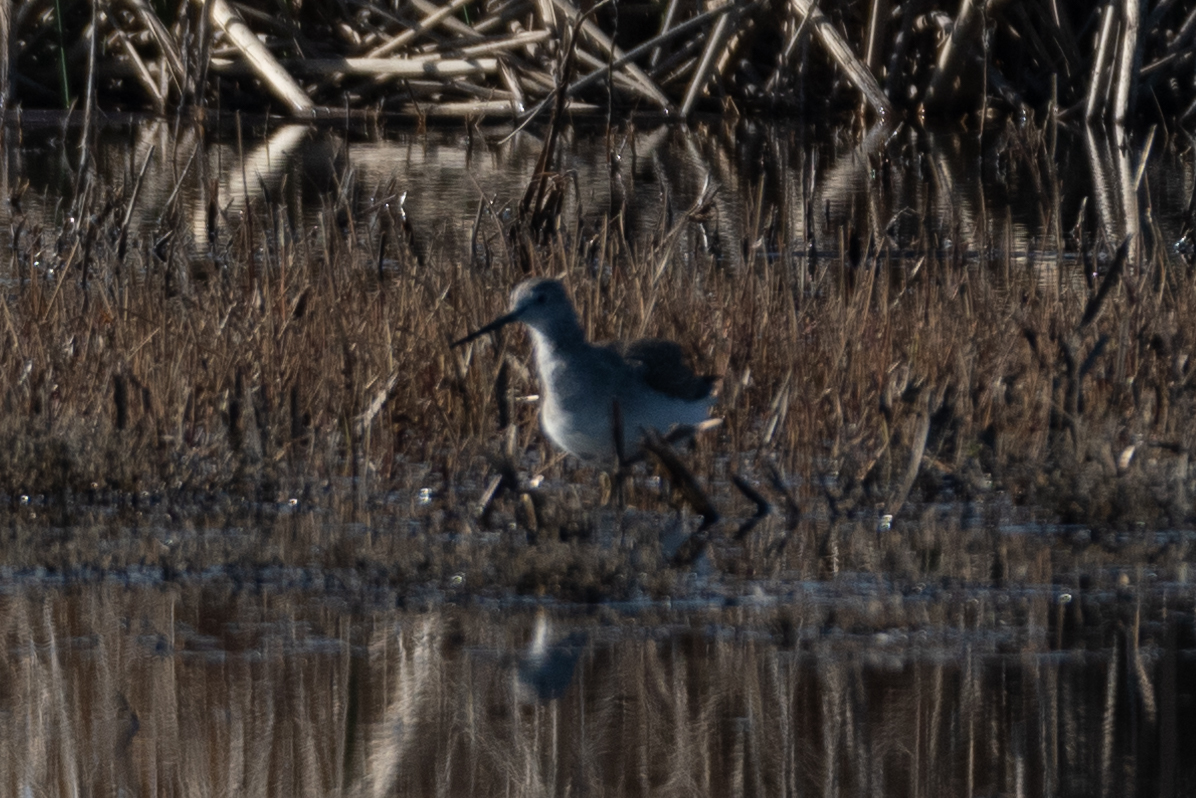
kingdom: Animalia
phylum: Chordata
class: Aves
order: Charadriiformes
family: Scolopacidae
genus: Tringa
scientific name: Tringa melanoleuca
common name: Greater yellowlegs
